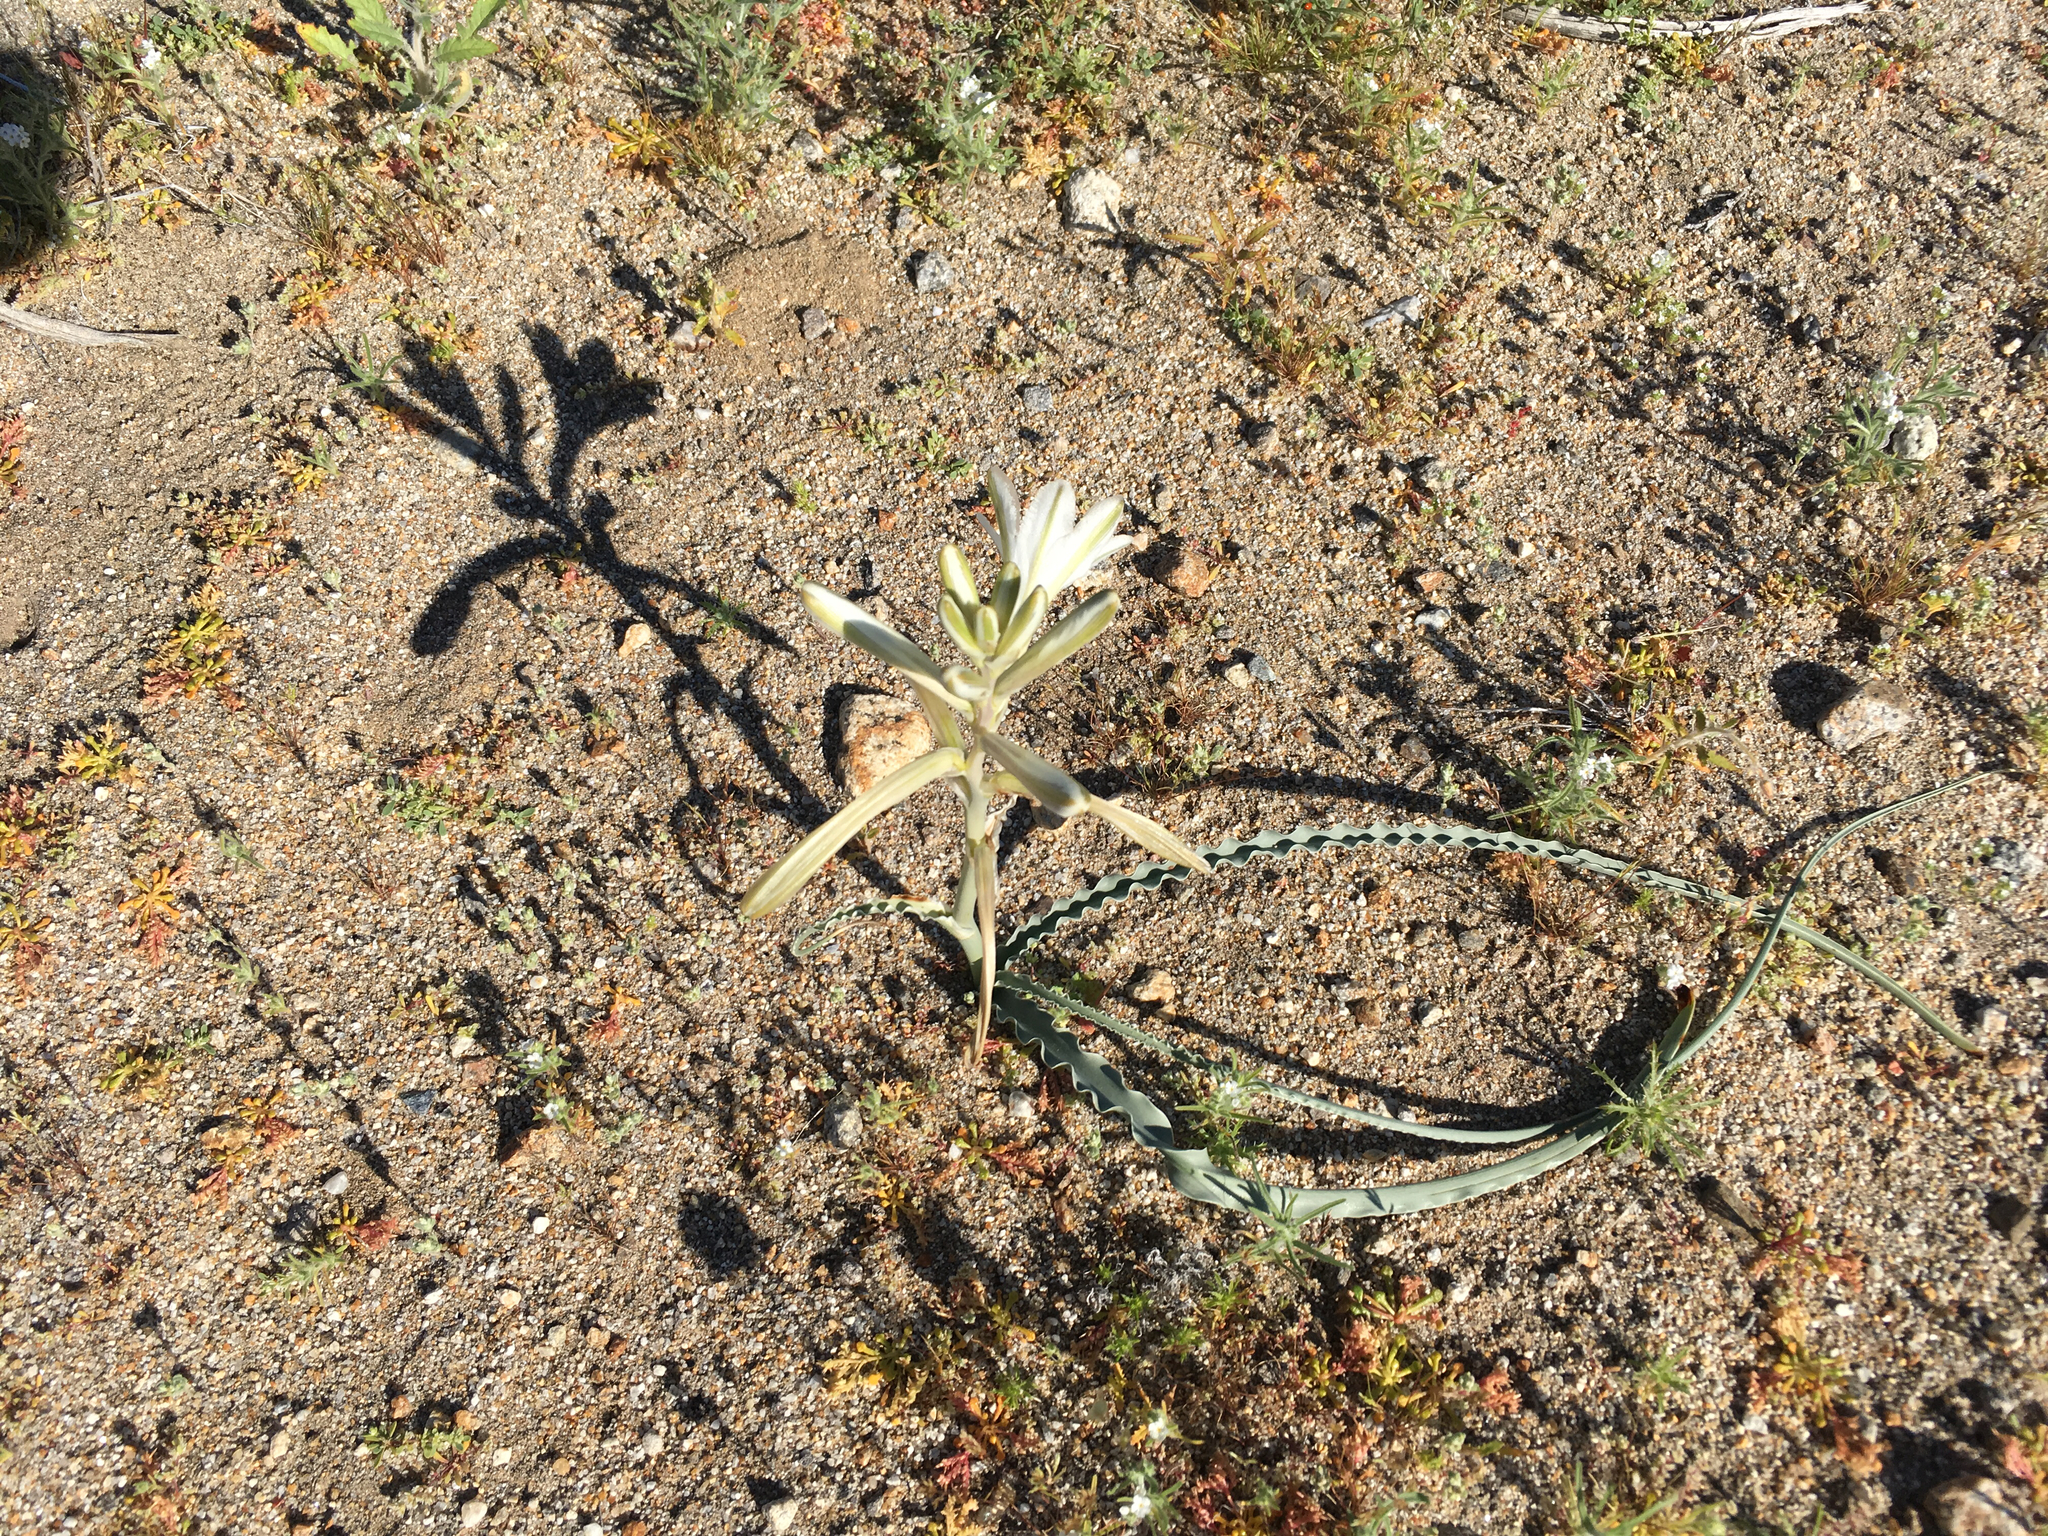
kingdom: Plantae
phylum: Tracheophyta
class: Liliopsida
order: Asparagales
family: Asparagaceae
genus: Hesperocallis
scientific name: Hesperocallis undulata
